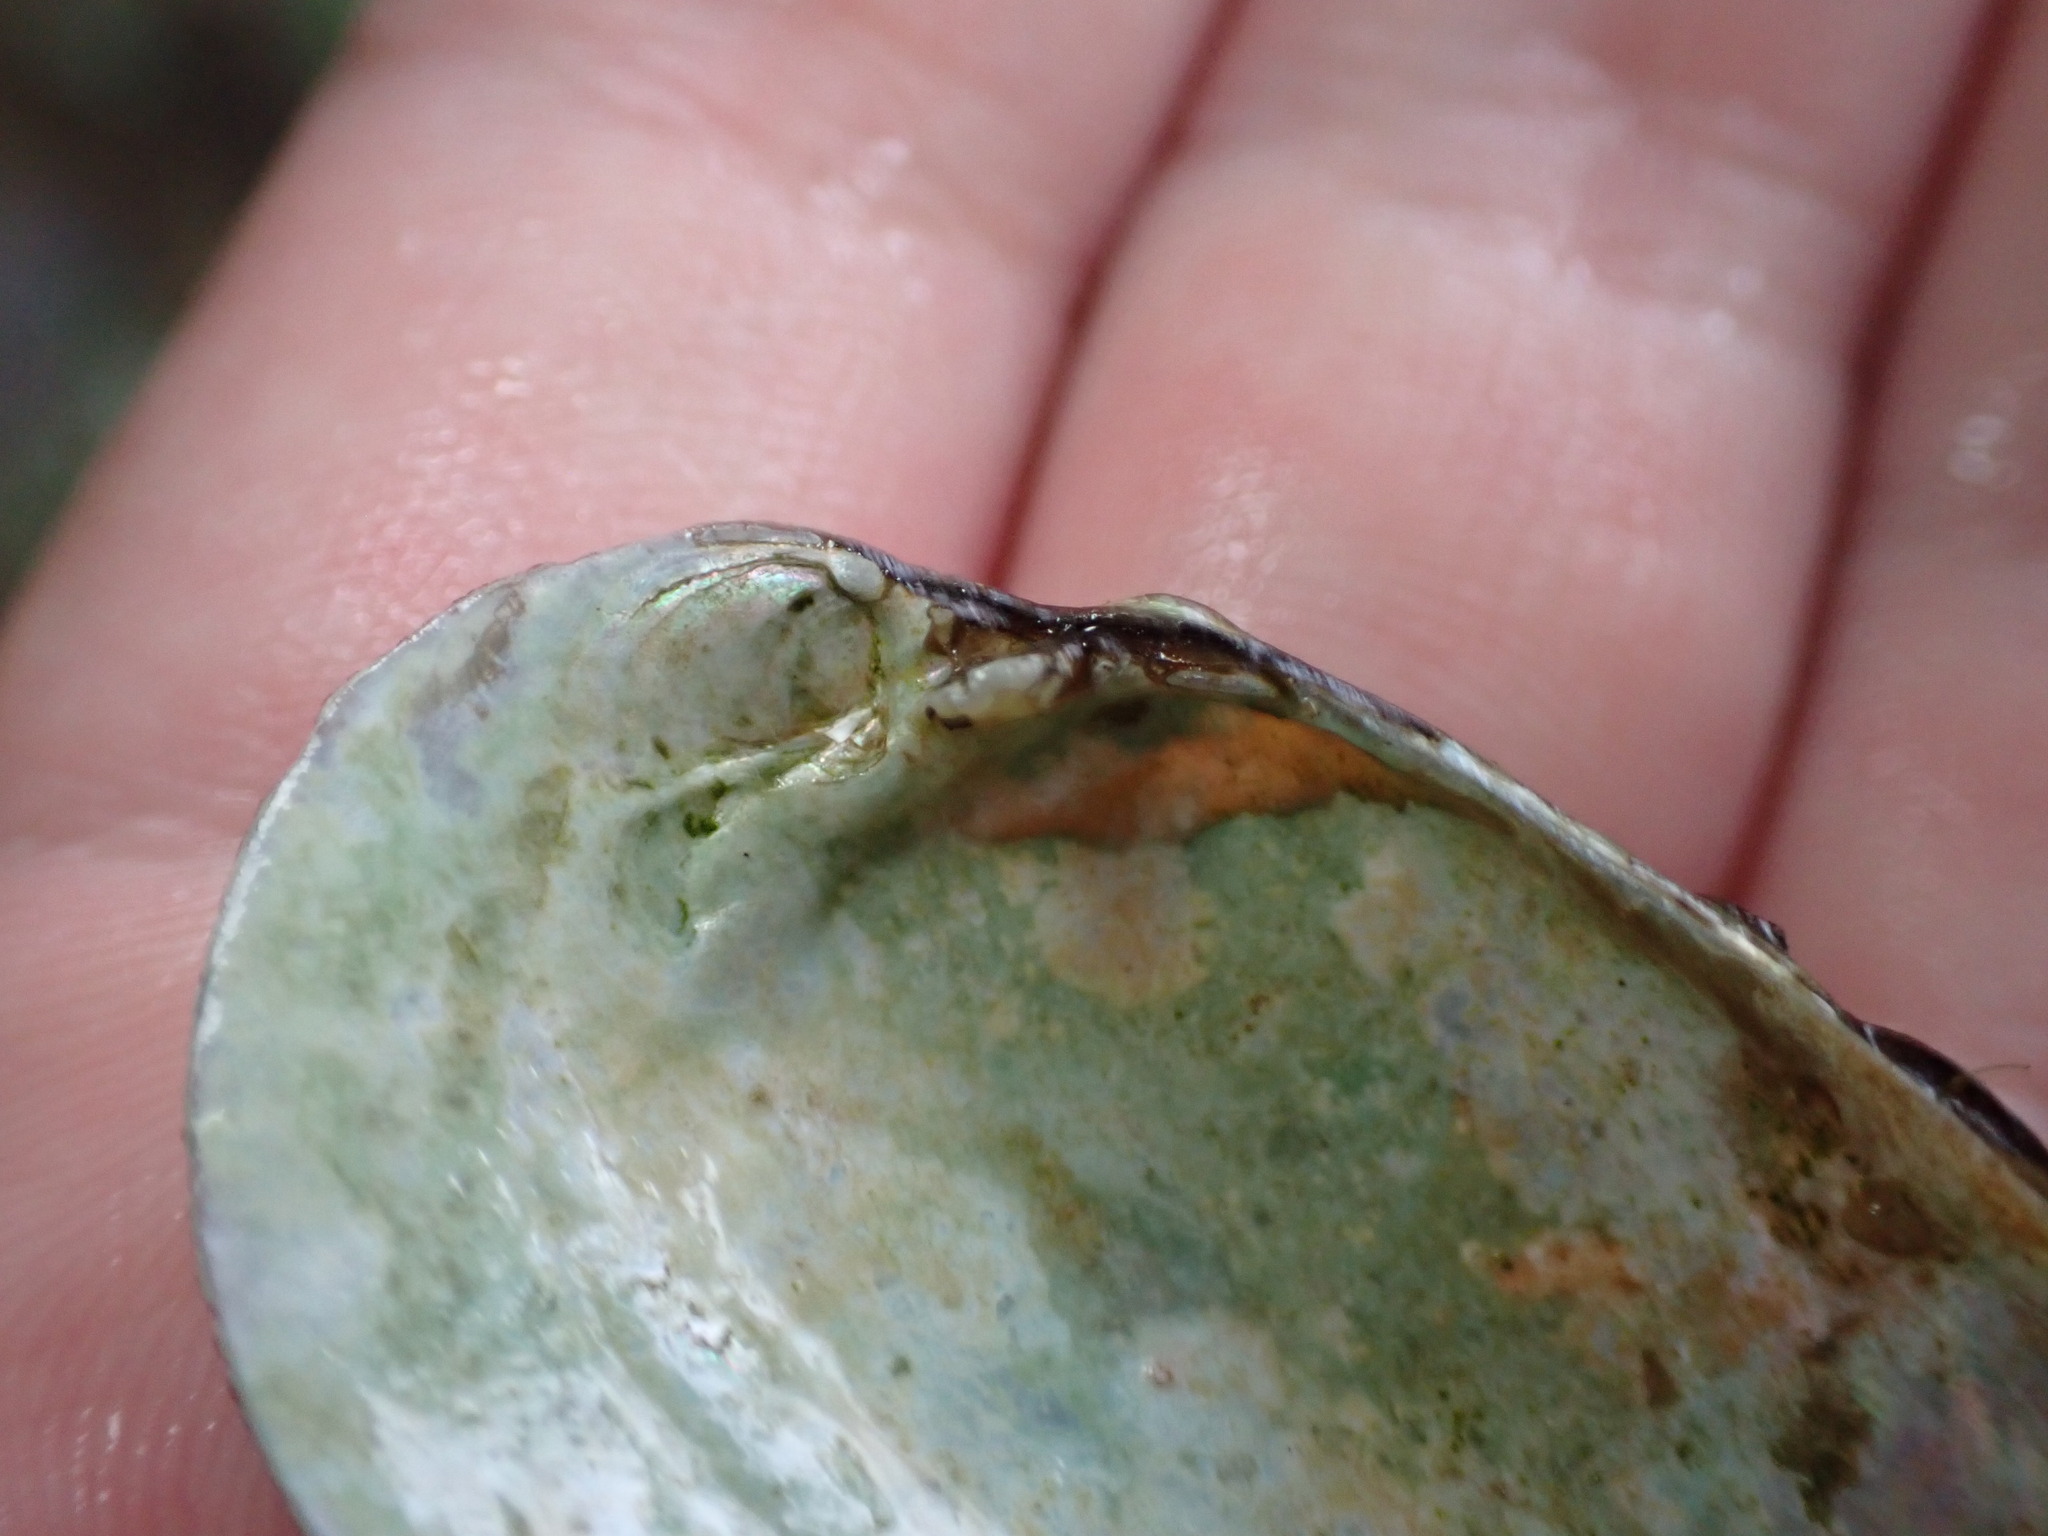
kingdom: Animalia
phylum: Mollusca
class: Bivalvia
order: Unionida
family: Unionidae
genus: Cambarunio
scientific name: Cambarunio iris
